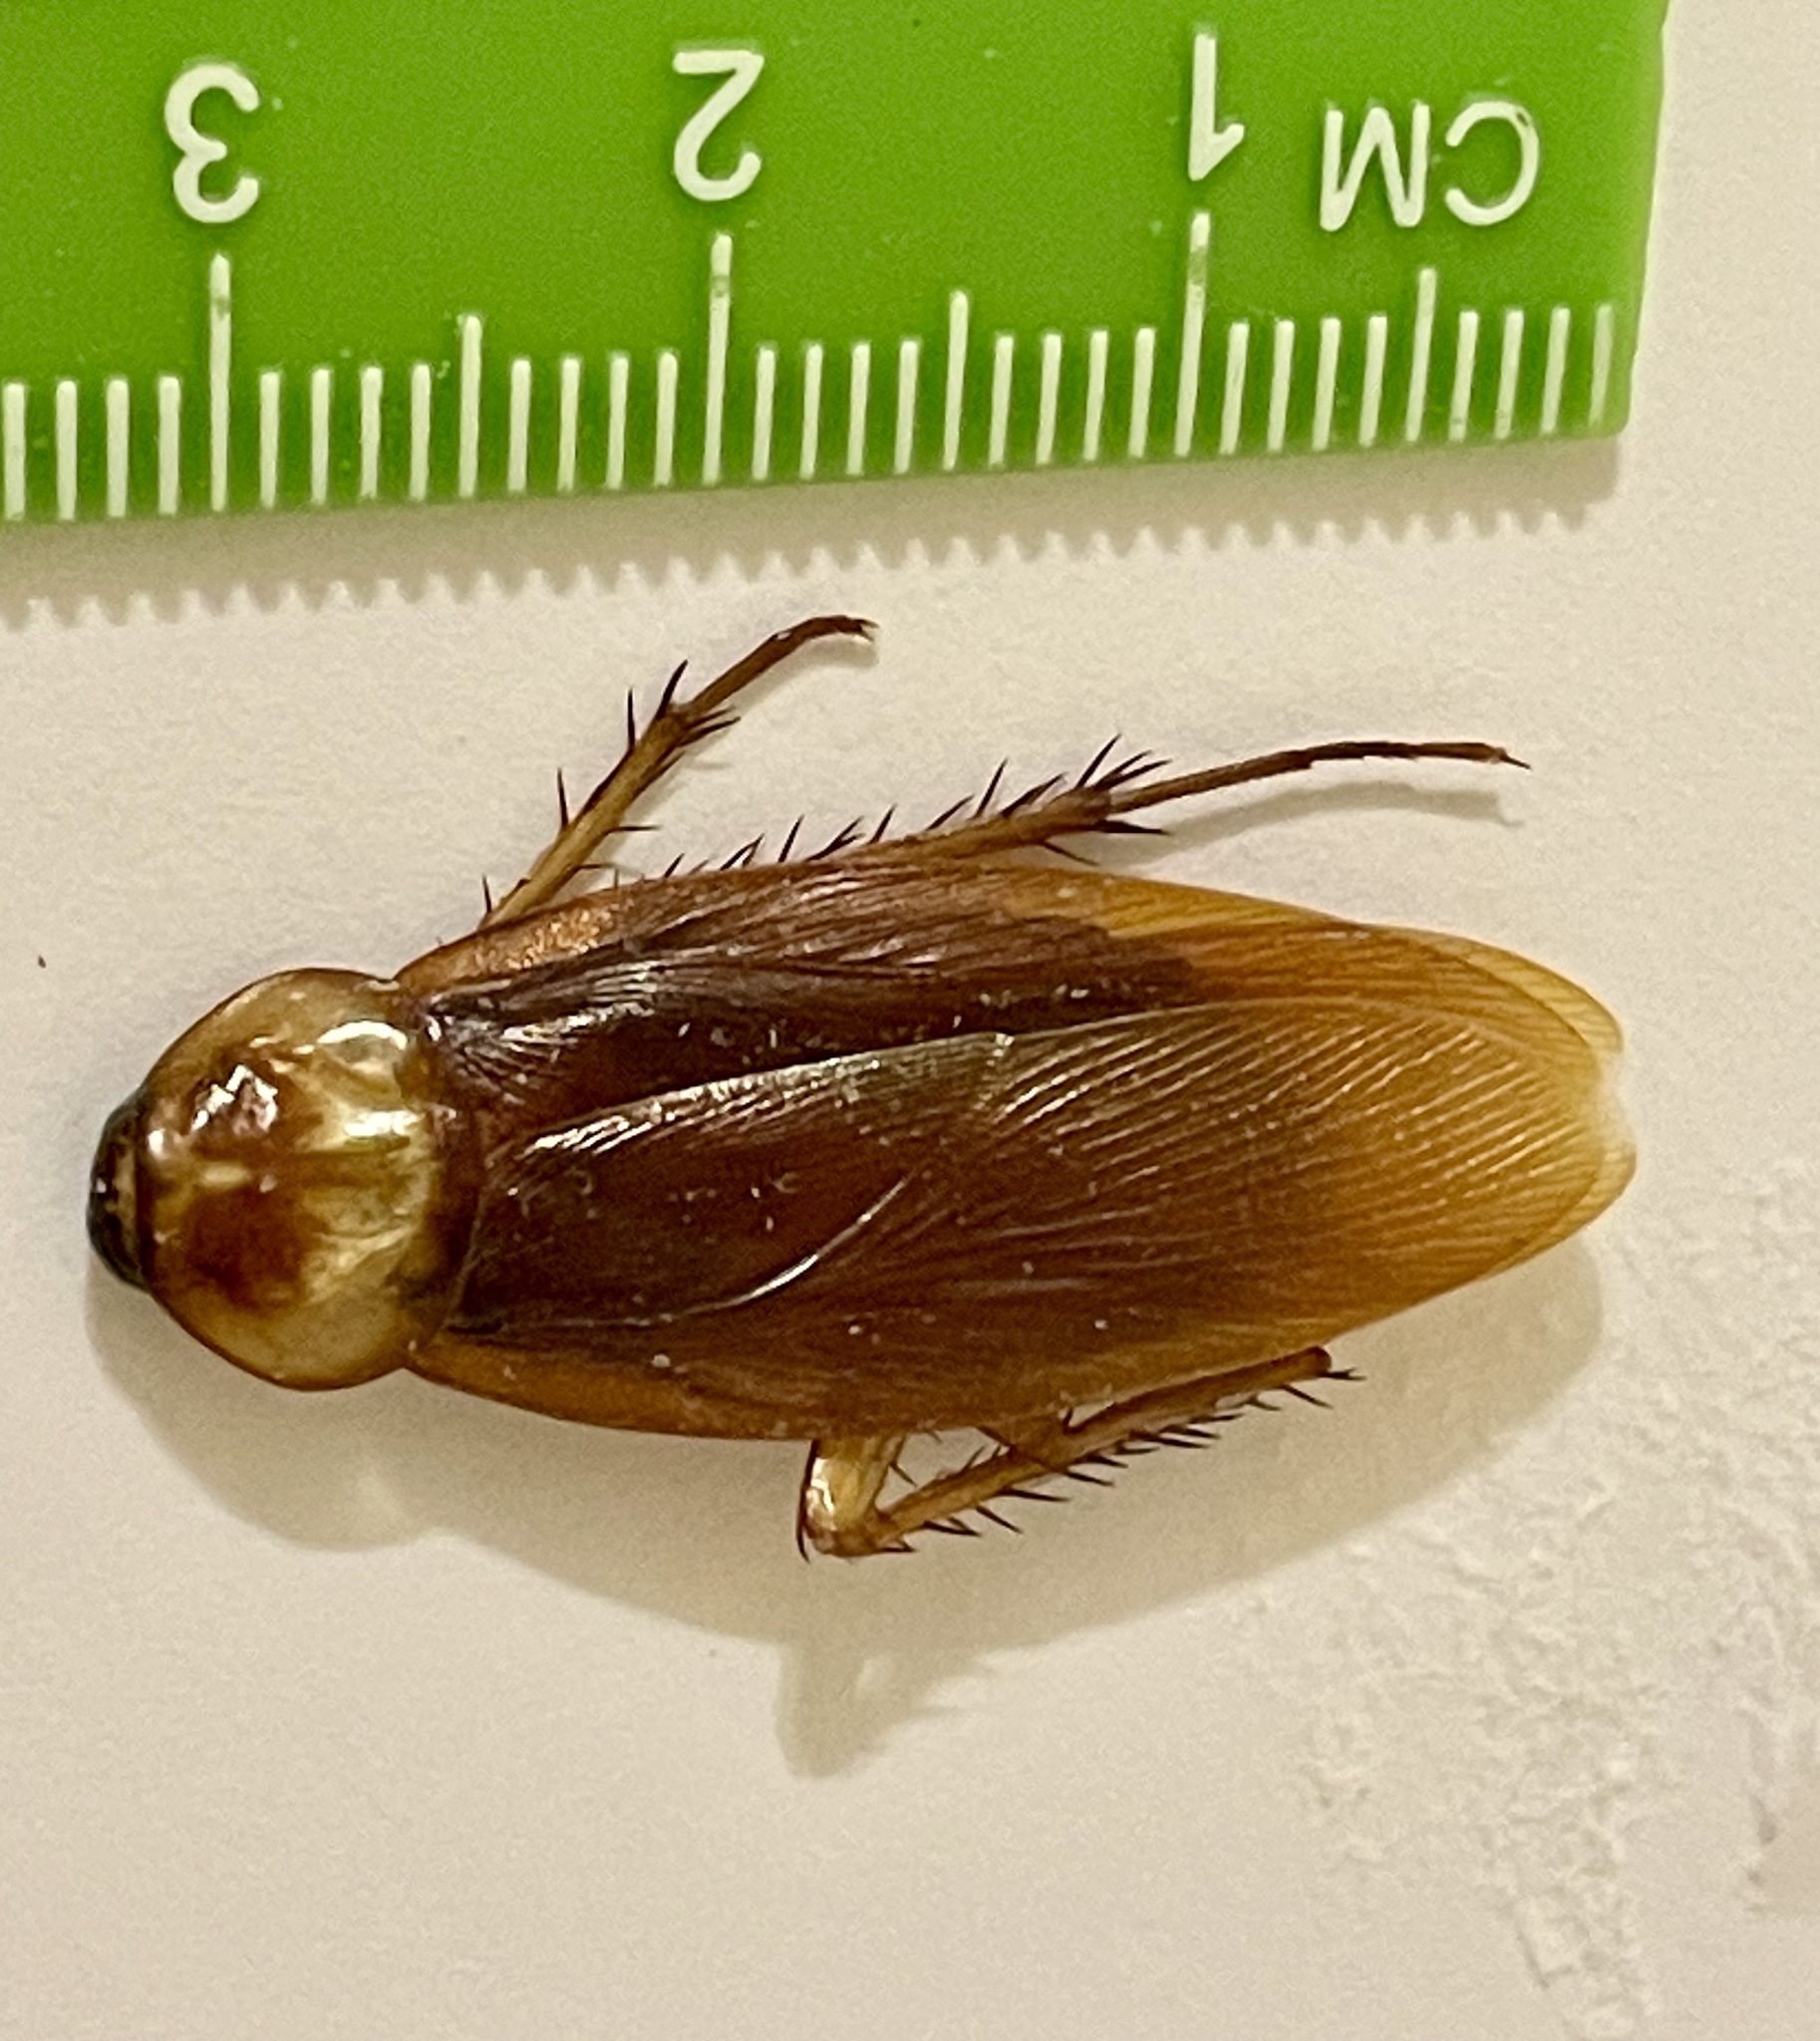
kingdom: Animalia
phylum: Arthropoda
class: Insecta
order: Blattodea
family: Blattidae
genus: Periplaneta
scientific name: Periplaneta americana
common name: American cockroach
